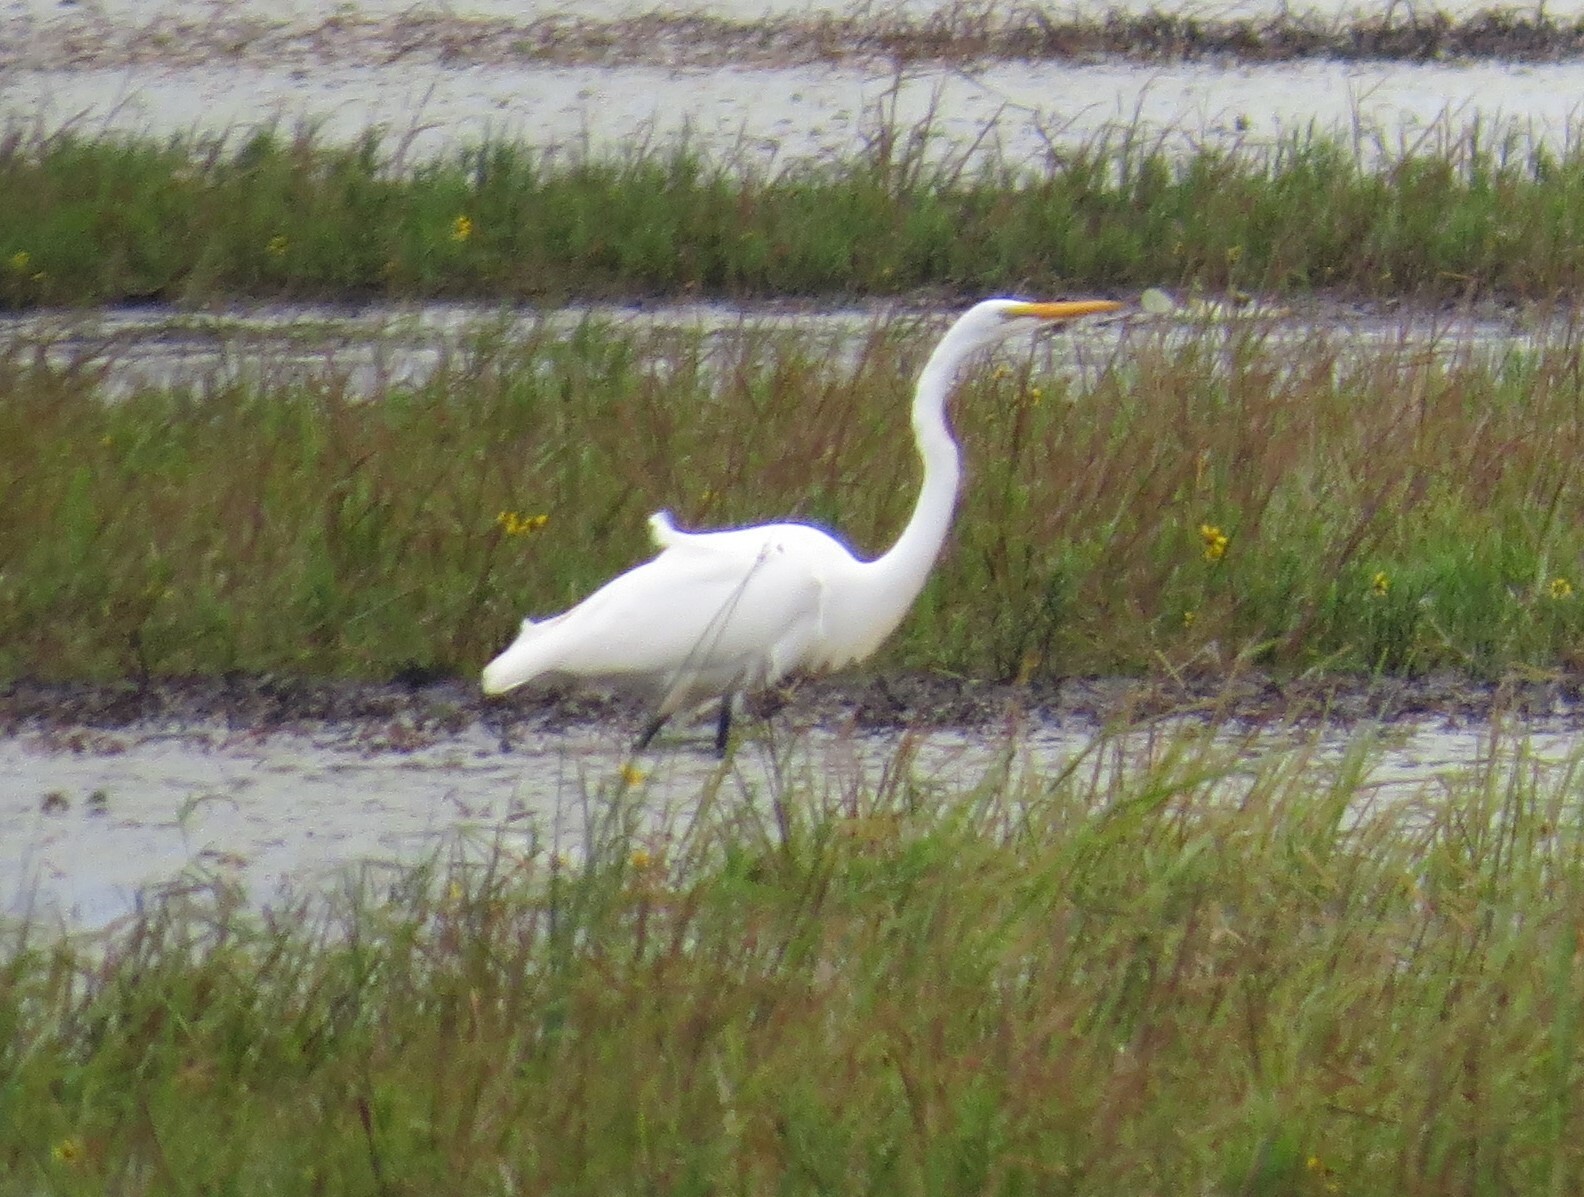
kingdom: Animalia
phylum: Chordata
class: Aves
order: Pelecaniformes
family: Ardeidae
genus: Ardea
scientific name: Ardea alba
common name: Great egret
